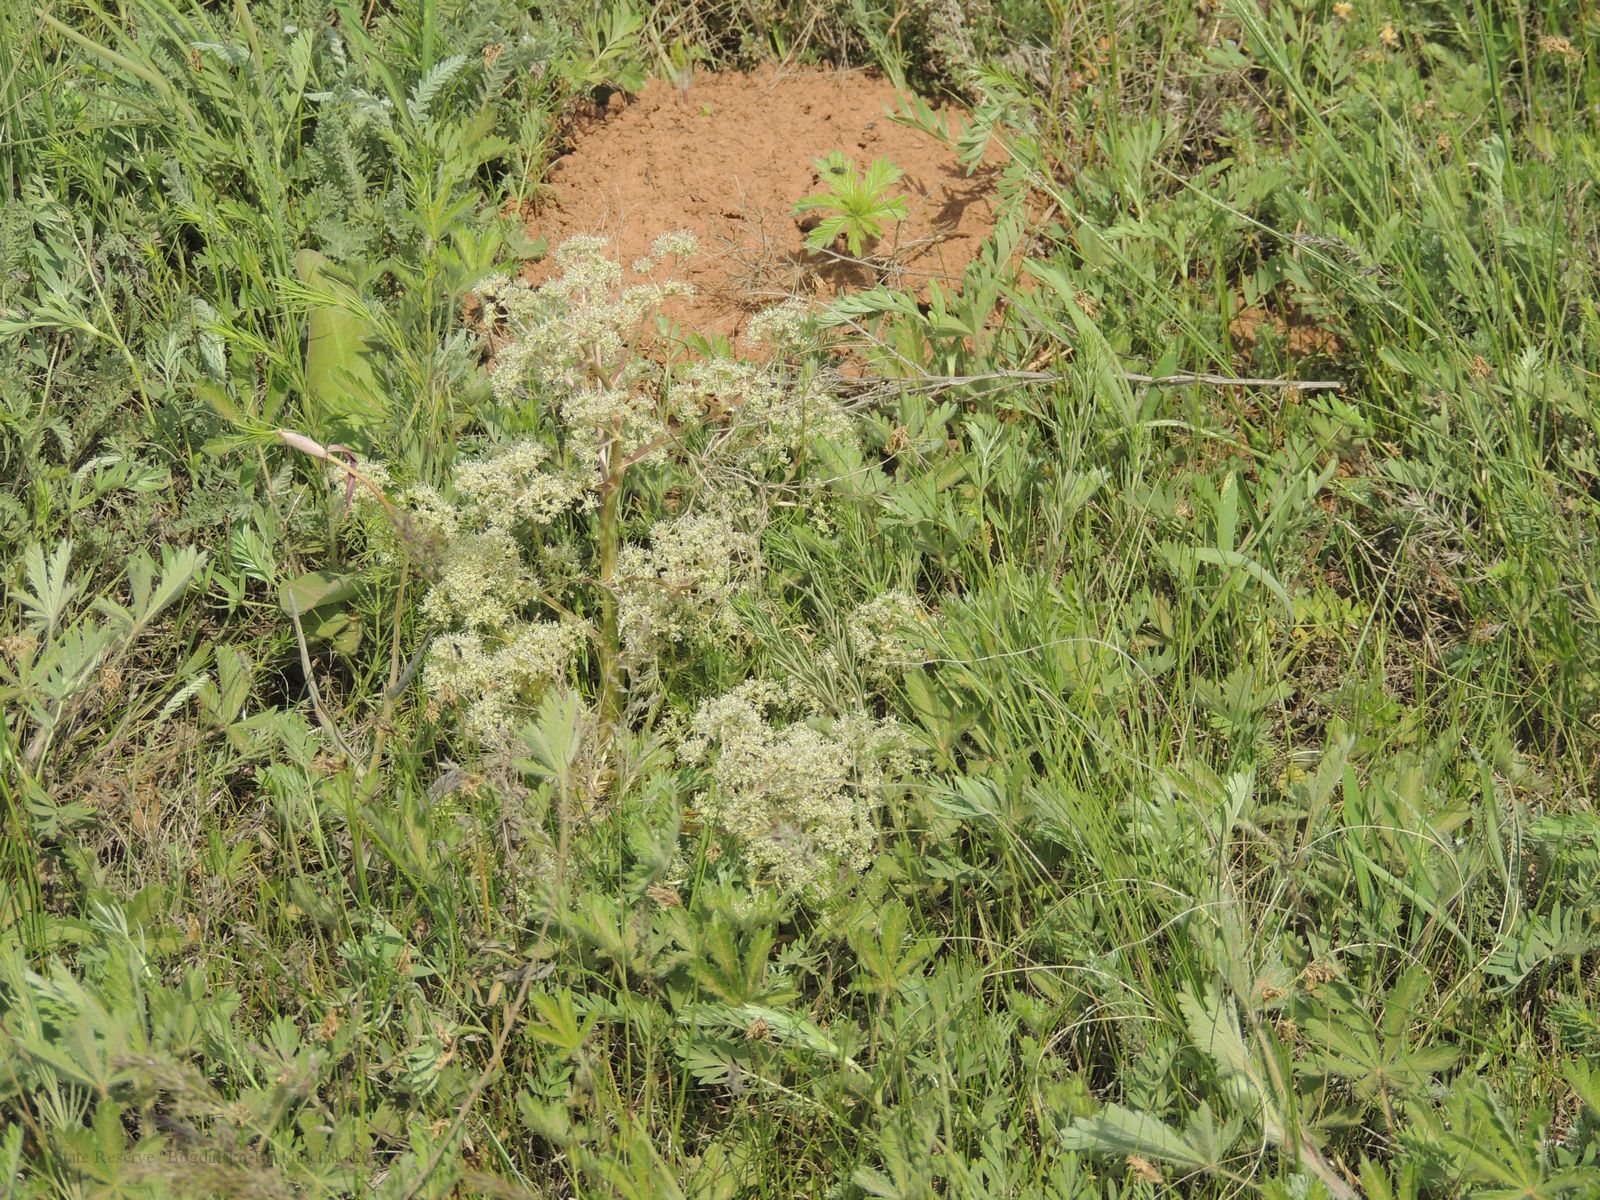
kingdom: Plantae
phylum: Tracheophyta
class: Magnoliopsida
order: Apiales
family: Apiaceae
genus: Trinia
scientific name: Trinia hispida
